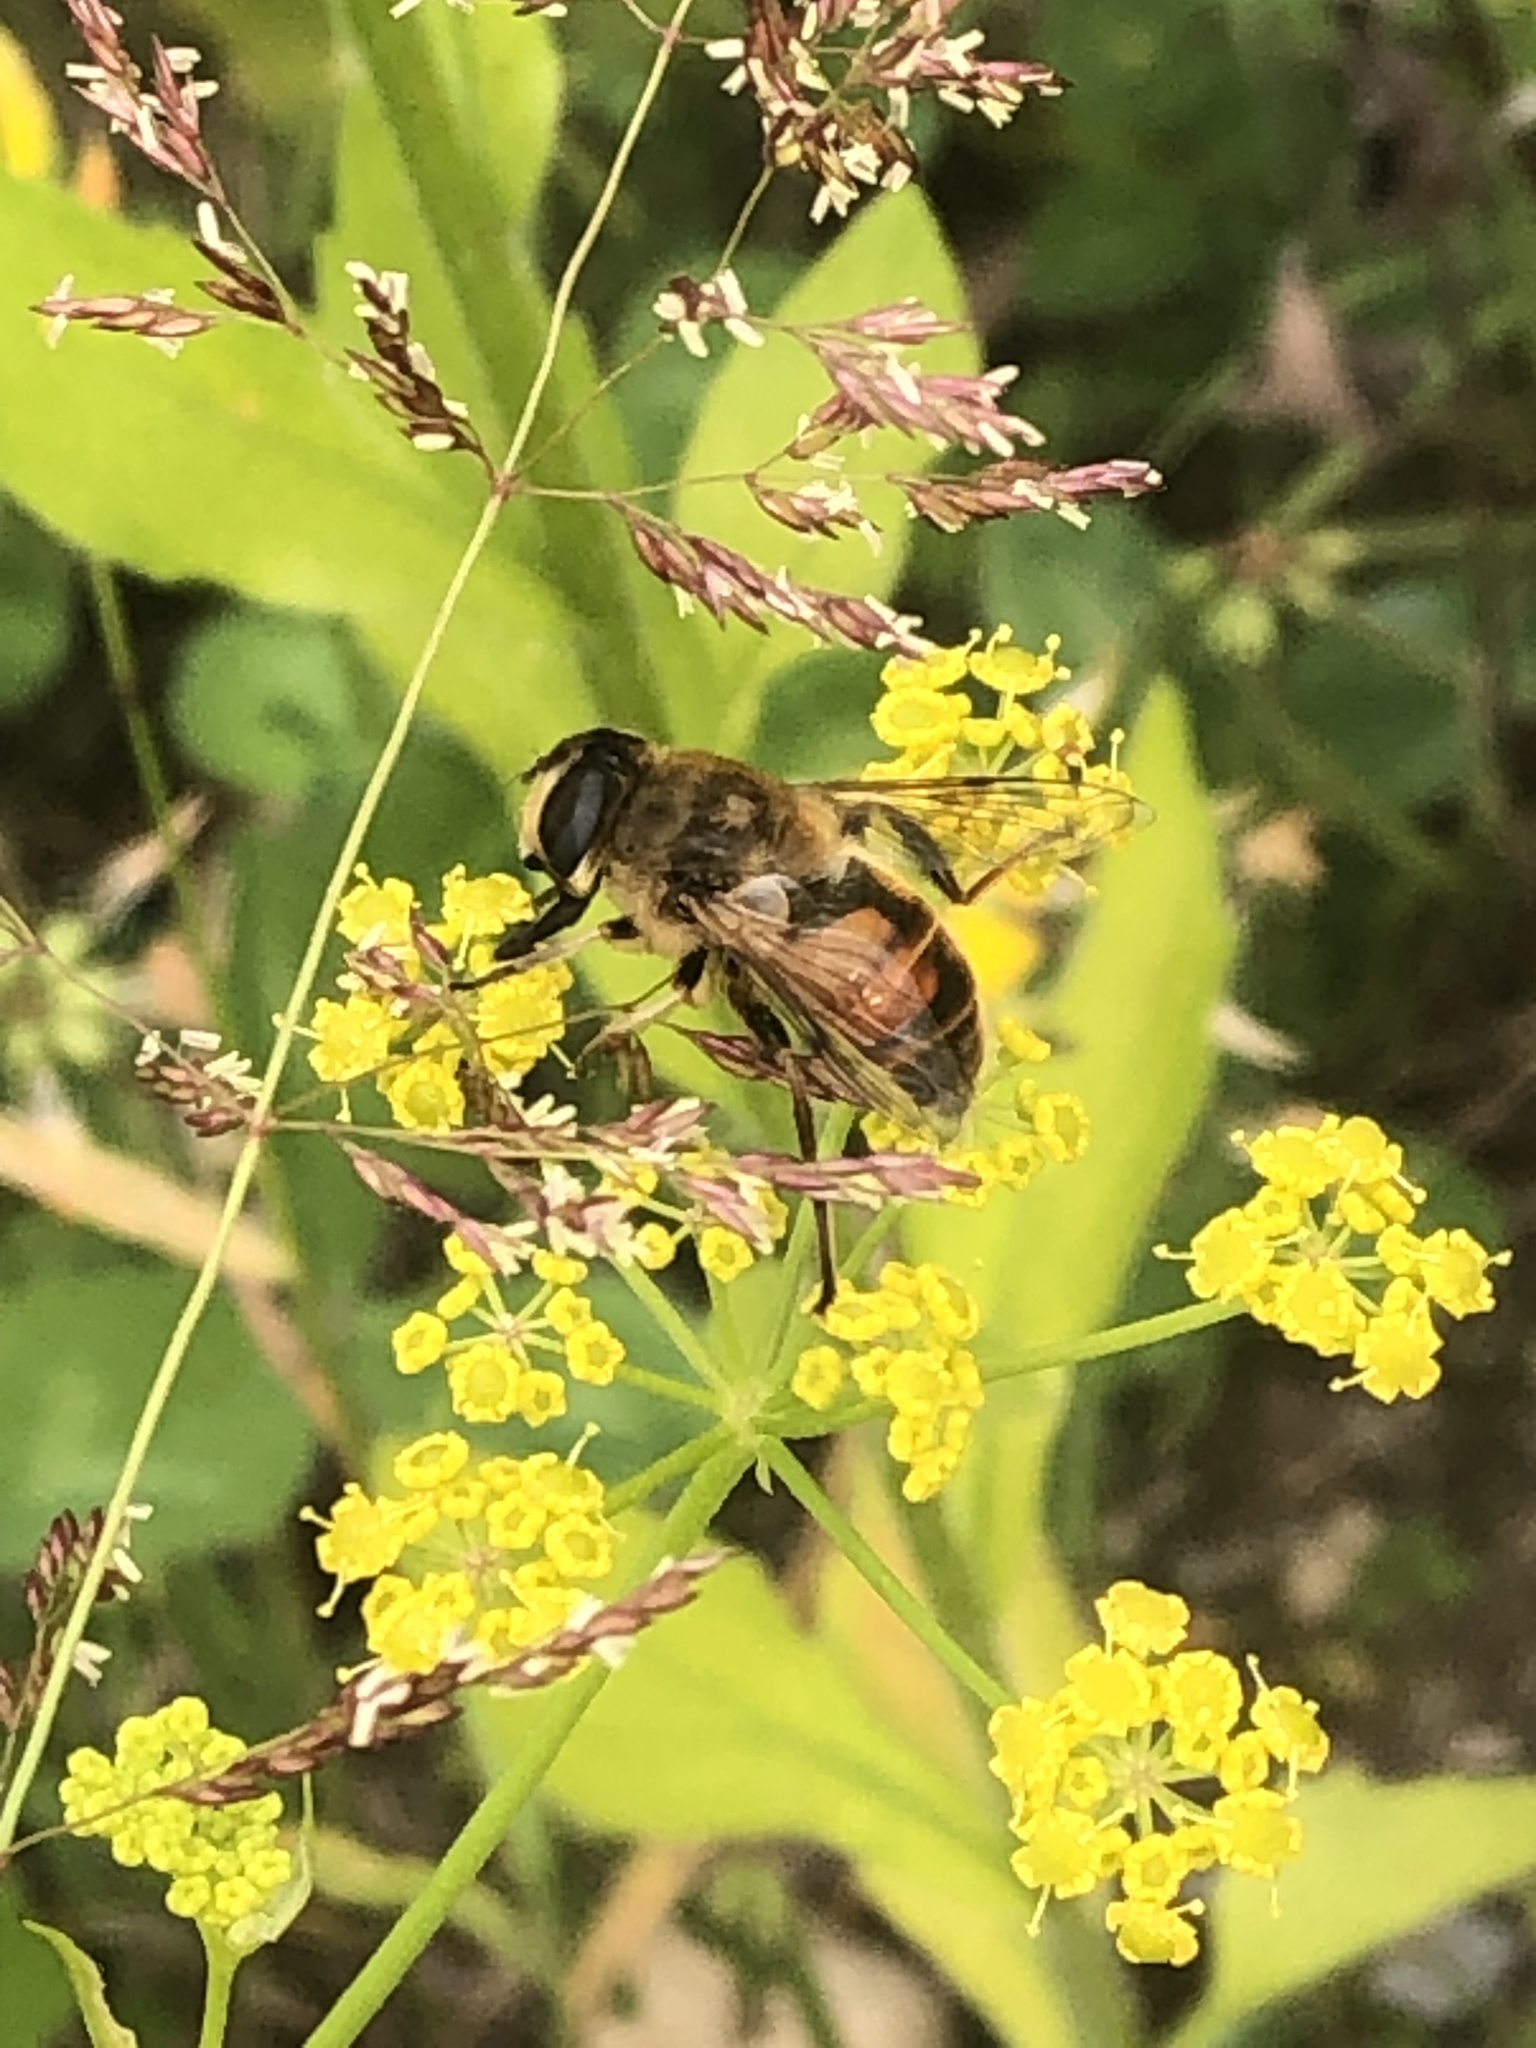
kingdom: Animalia
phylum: Arthropoda
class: Insecta
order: Diptera
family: Syrphidae
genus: Eristalis
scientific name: Eristalis tenax
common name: Drone fly
